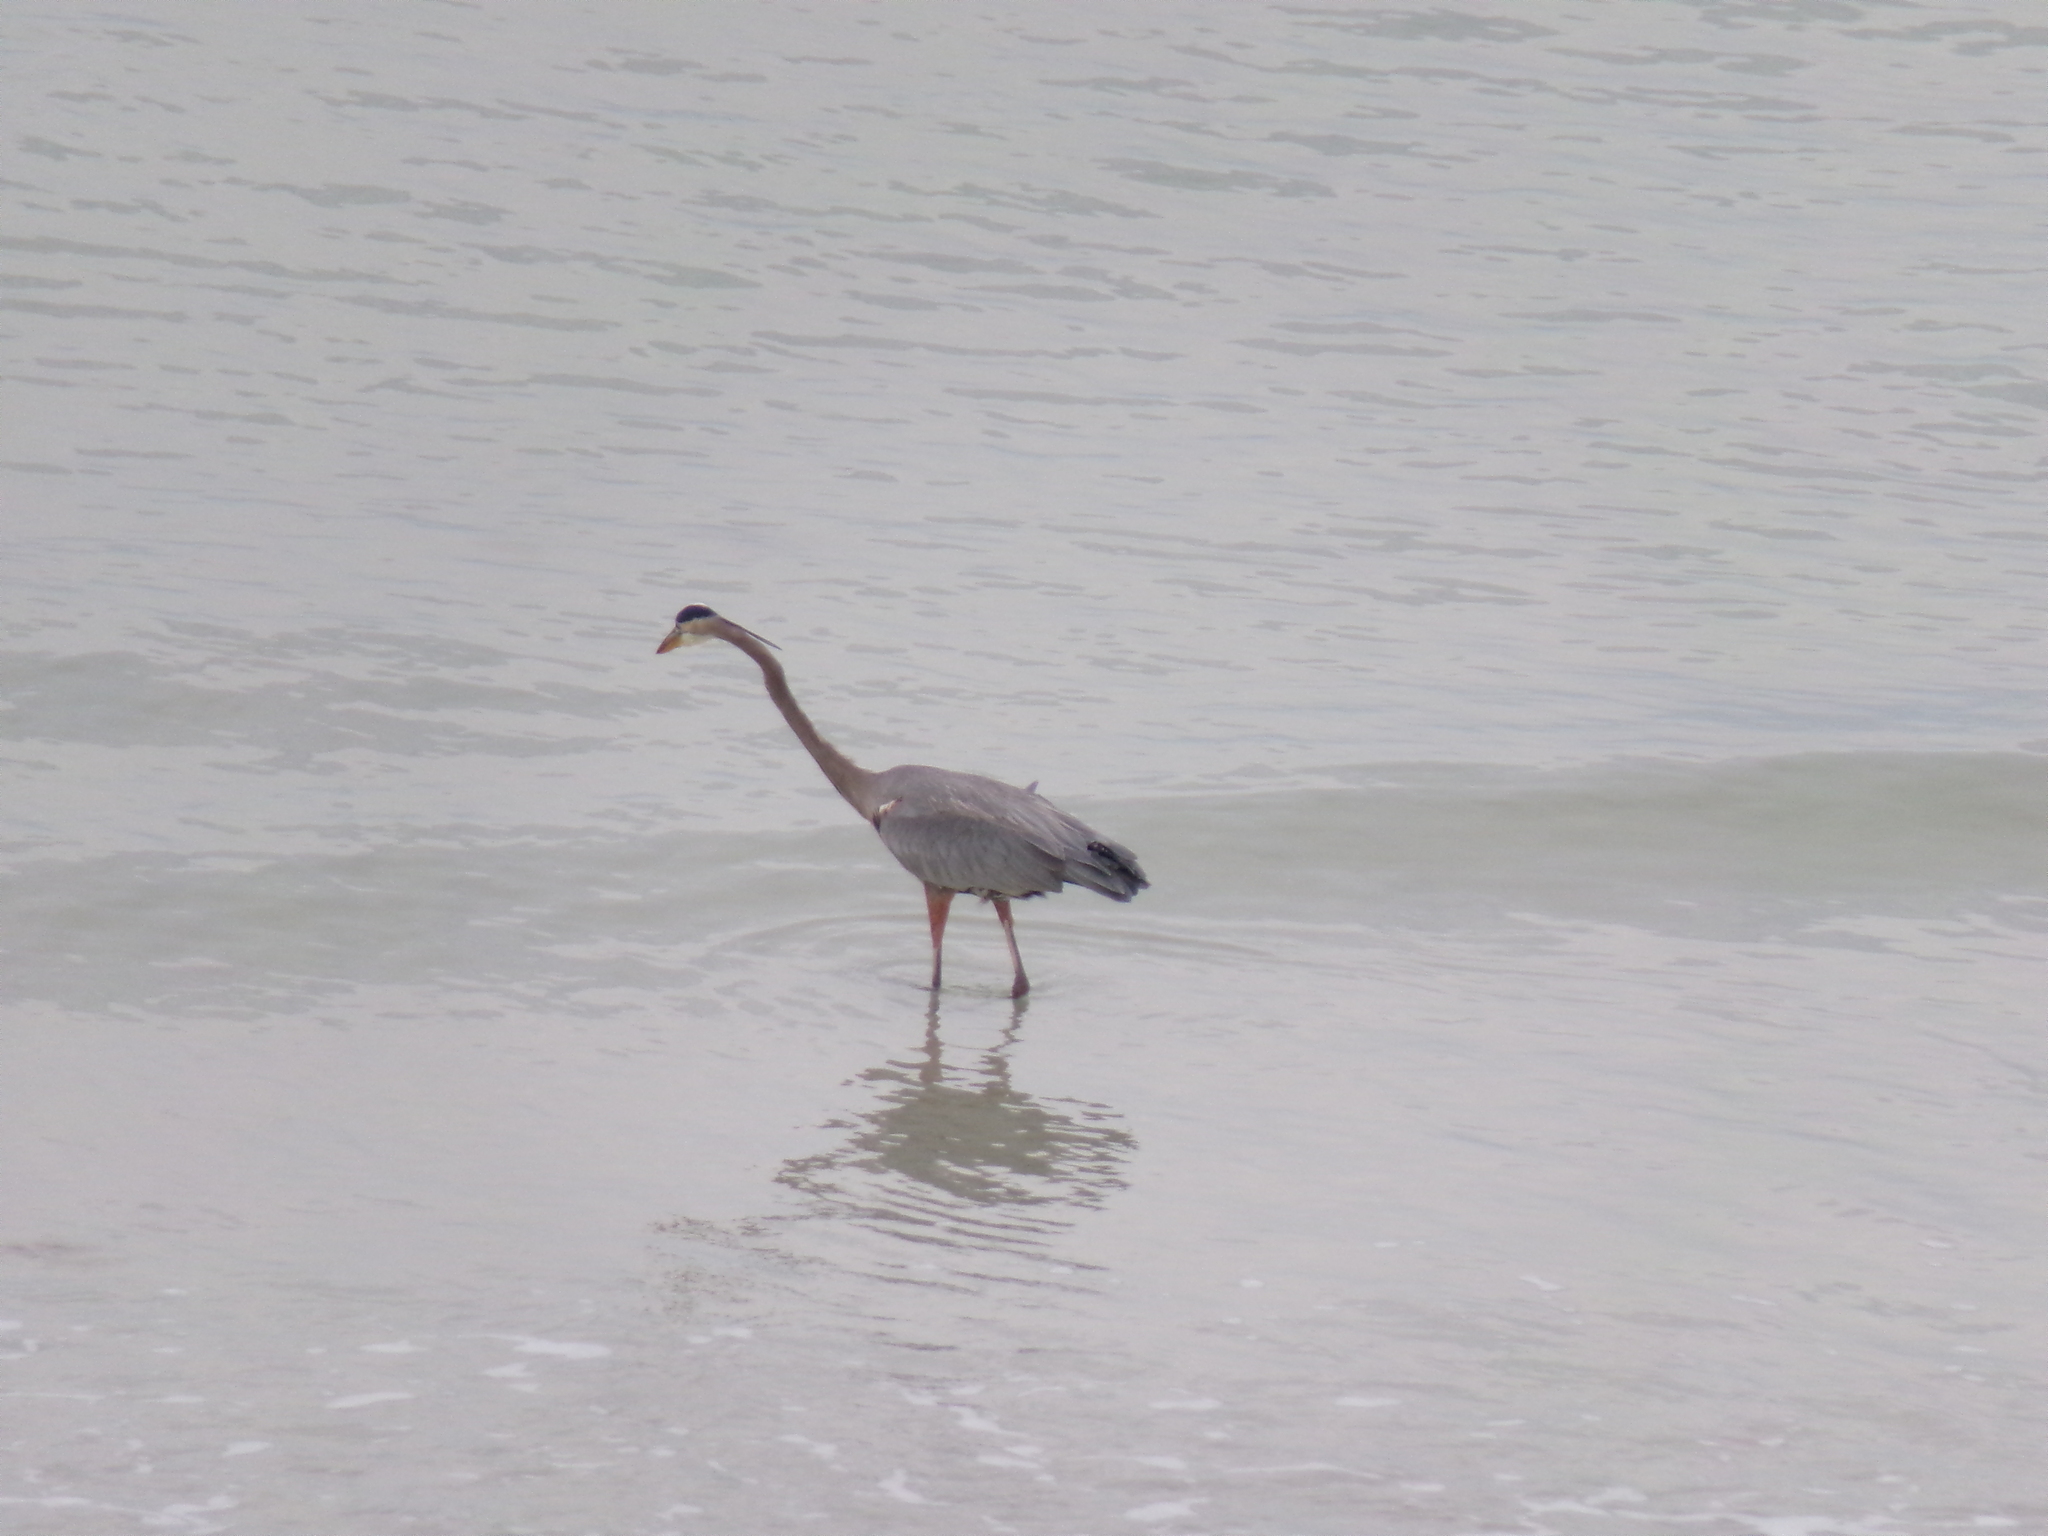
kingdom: Animalia
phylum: Chordata
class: Aves
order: Pelecaniformes
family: Ardeidae
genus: Ardea
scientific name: Ardea herodias
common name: Great blue heron
